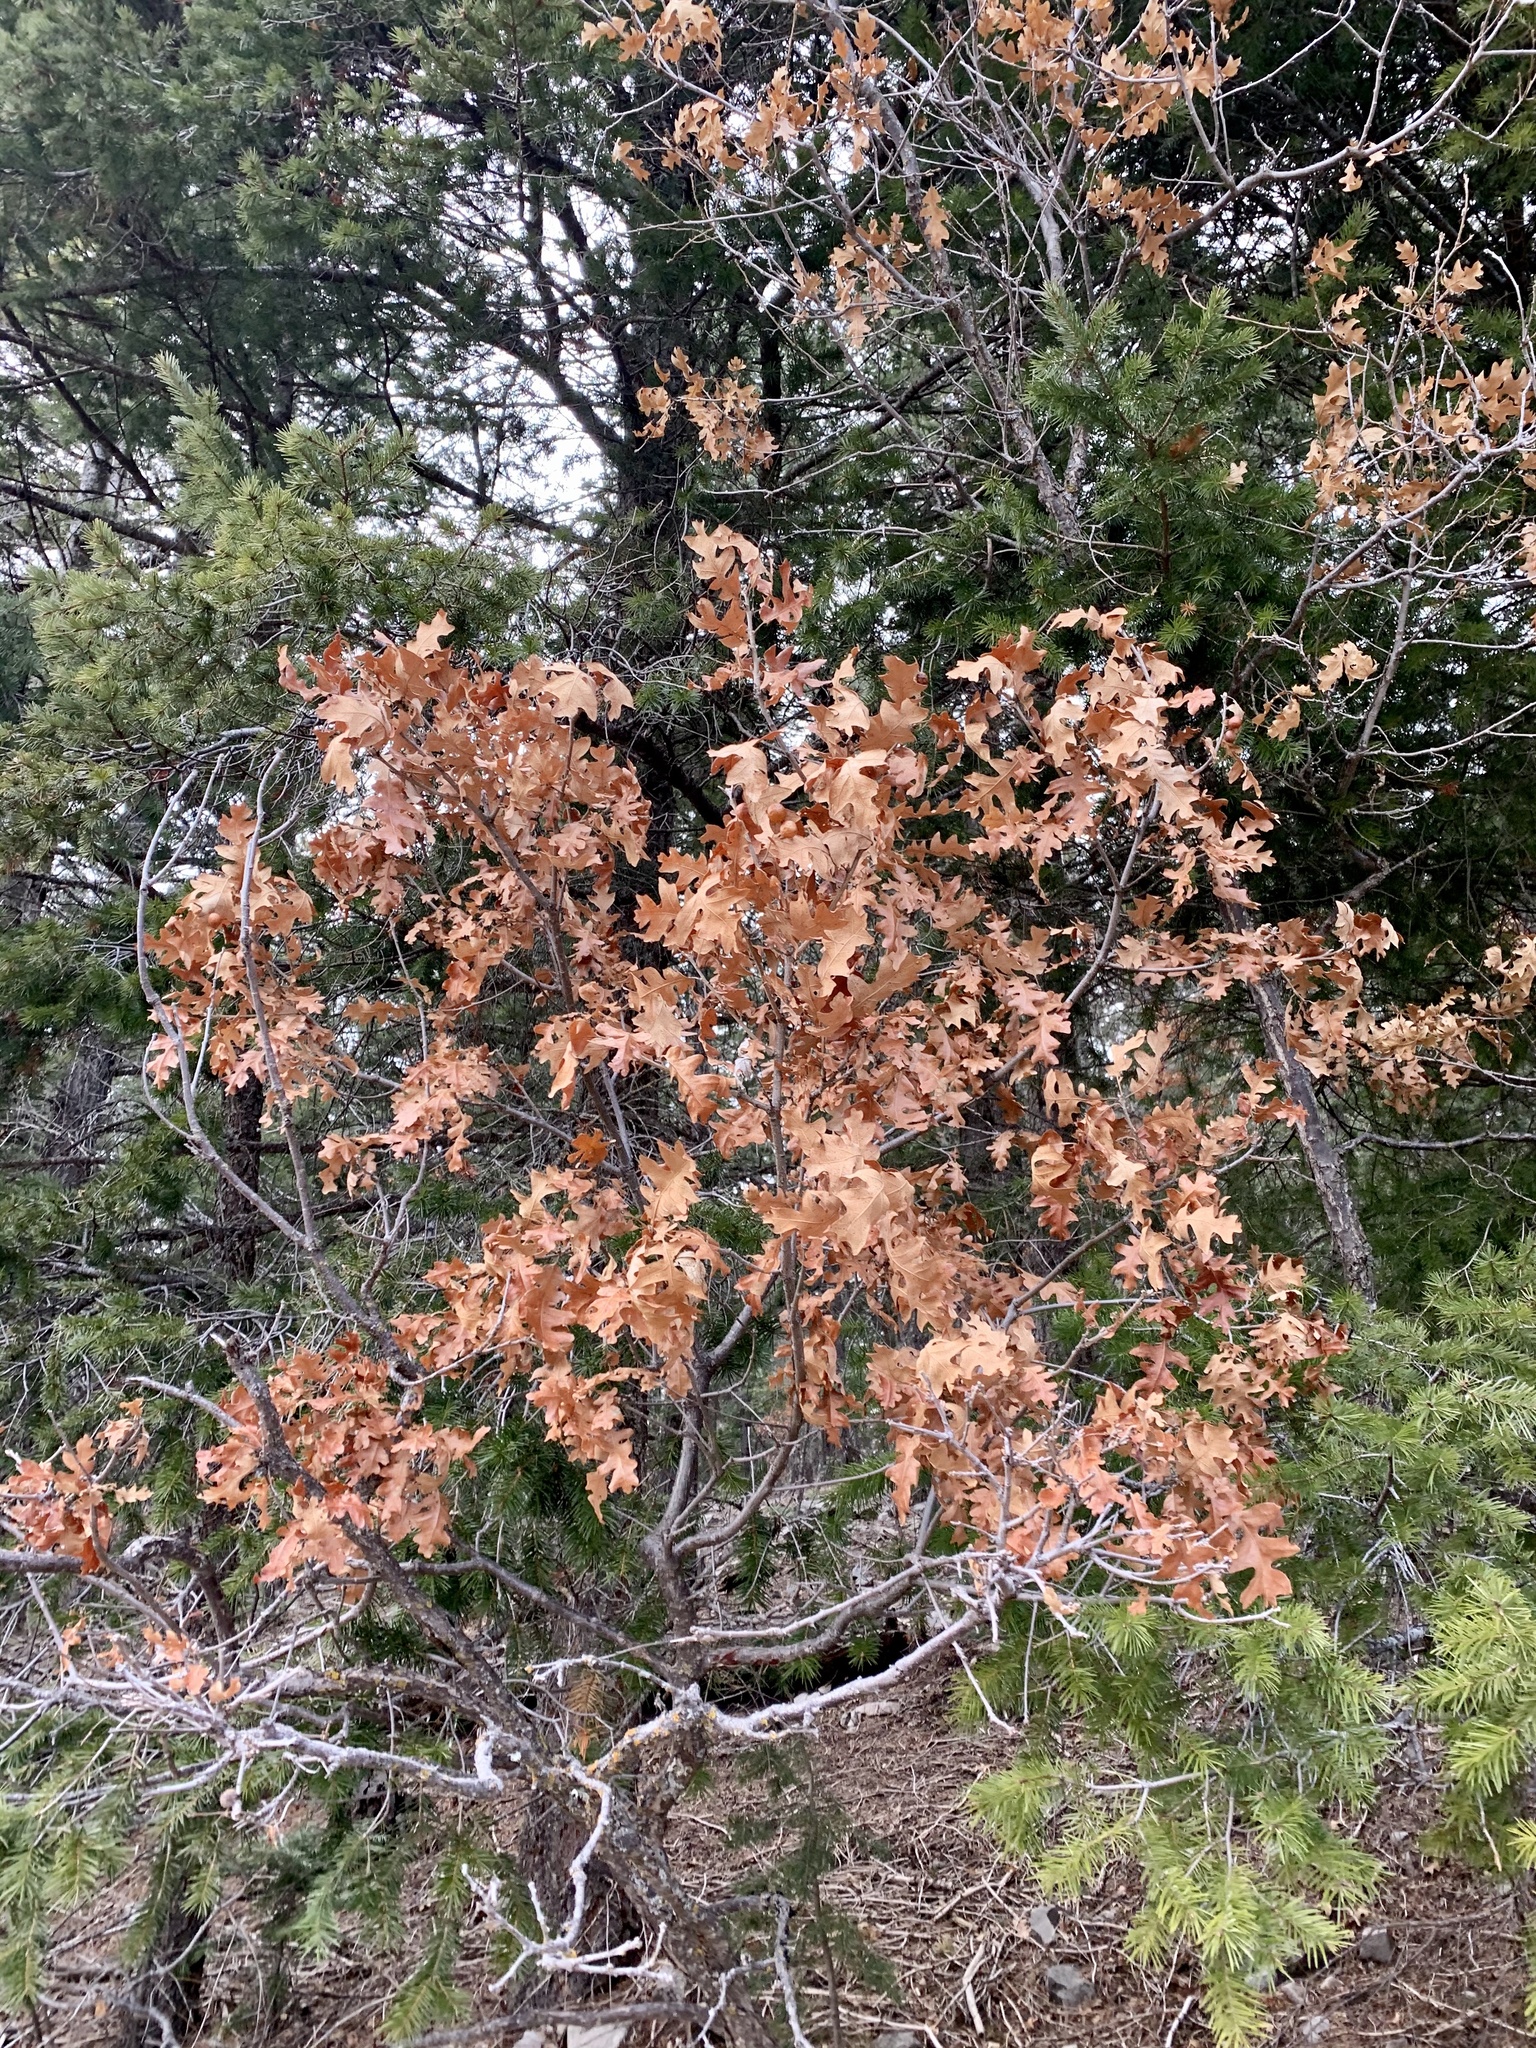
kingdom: Plantae
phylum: Tracheophyta
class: Magnoliopsida
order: Fagales
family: Fagaceae
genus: Quercus
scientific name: Quercus gambelii
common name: Gambel oak
